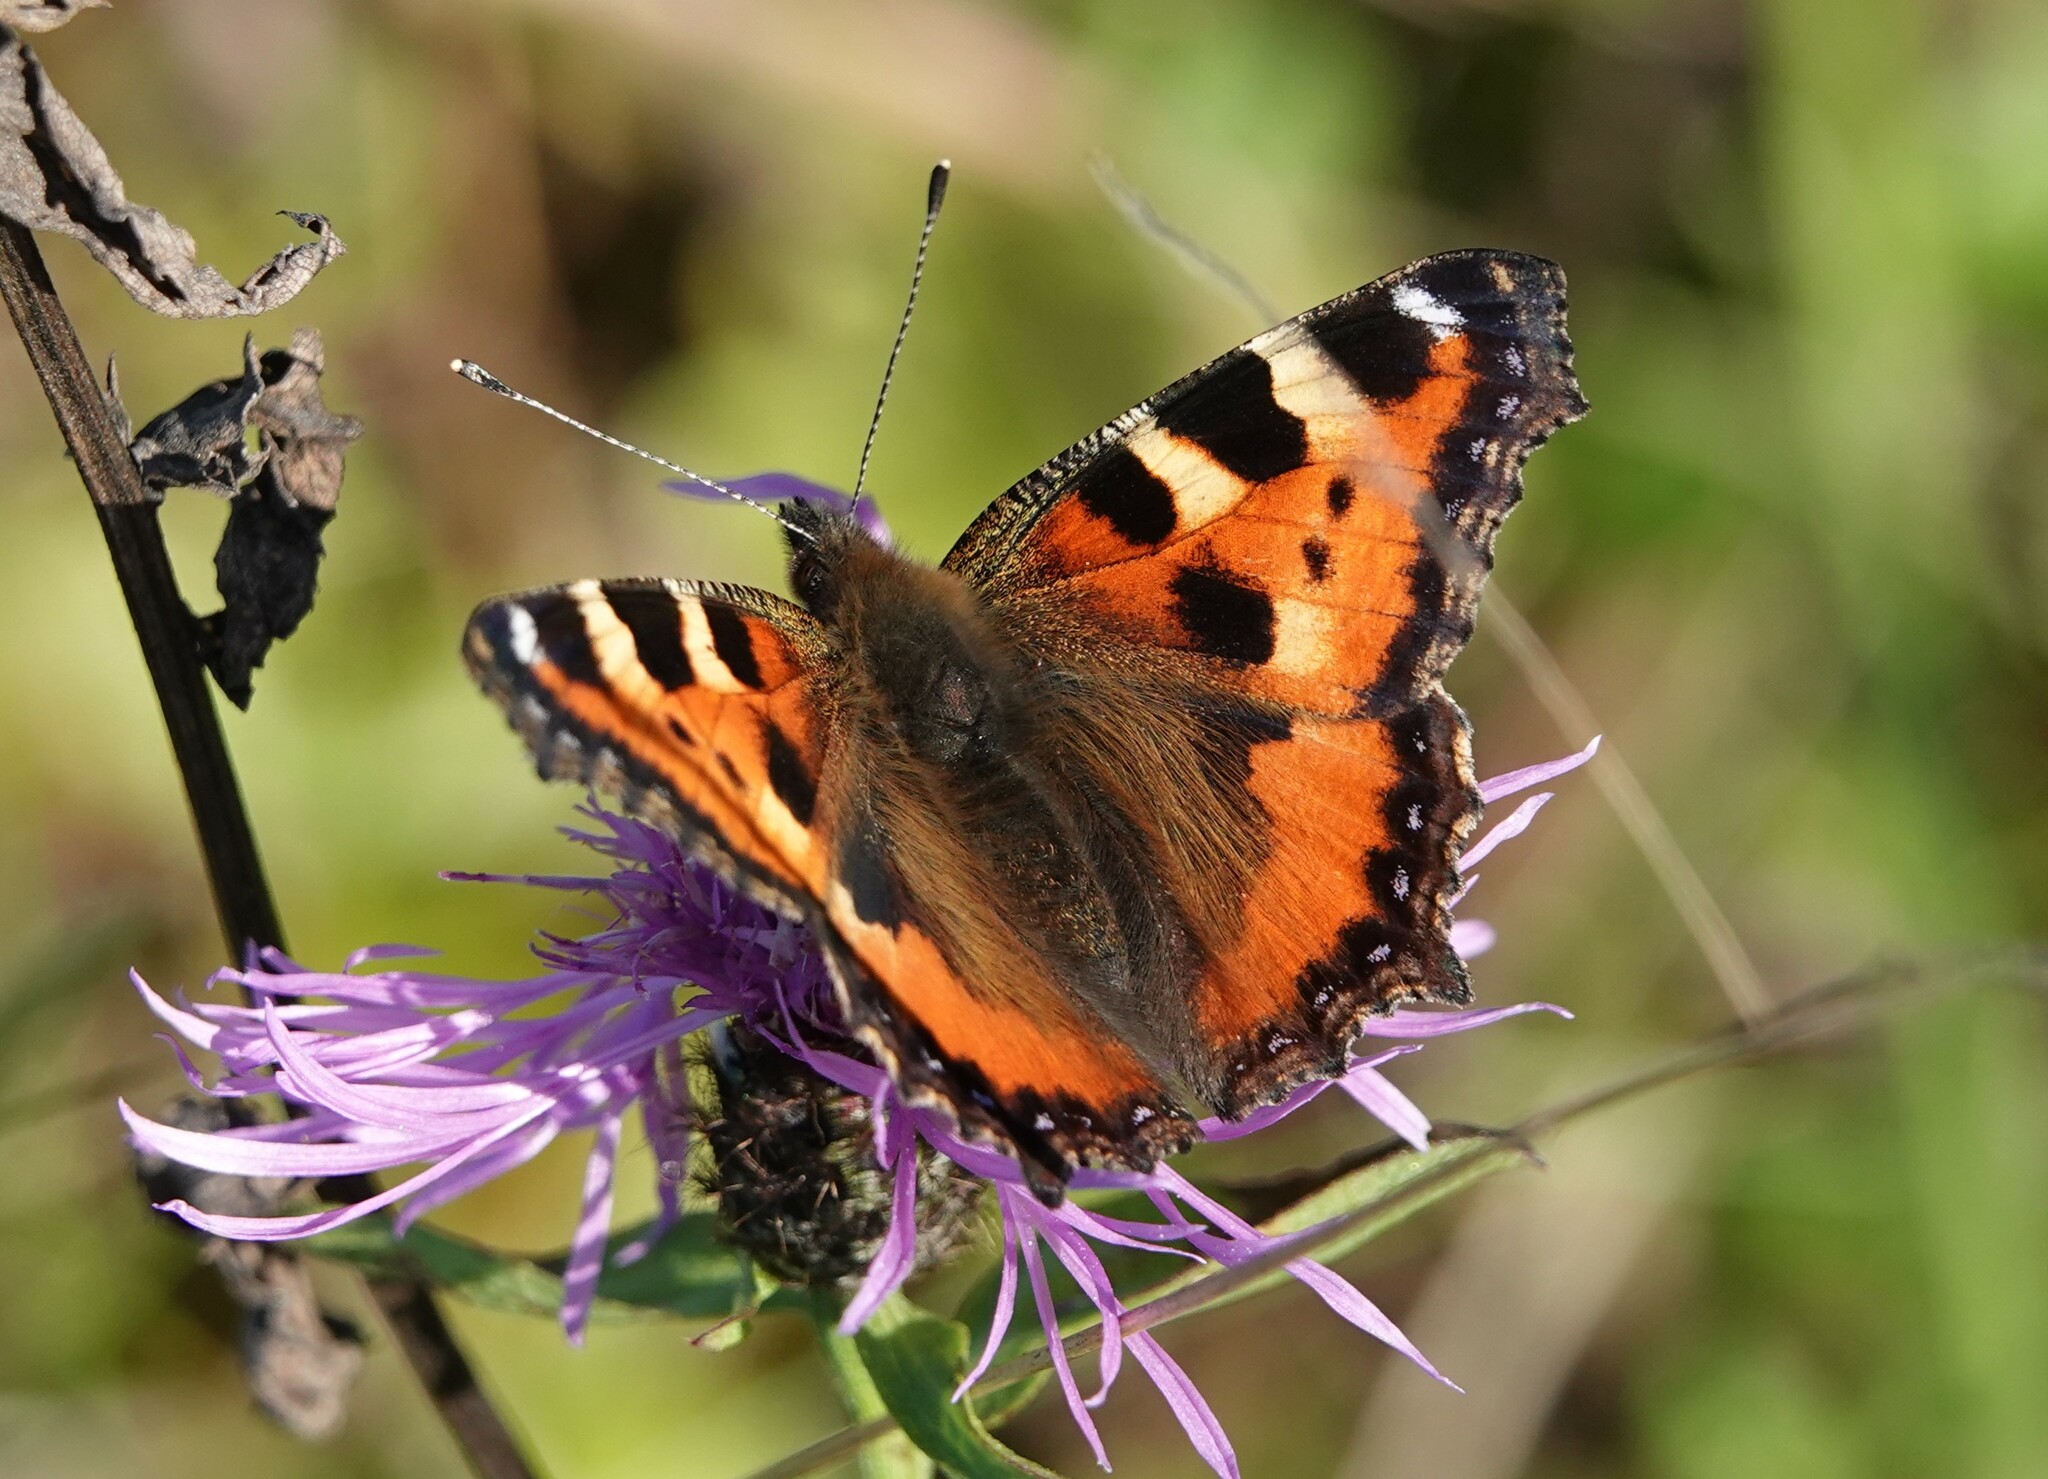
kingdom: Animalia
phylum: Arthropoda
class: Insecta
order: Lepidoptera
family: Nymphalidae
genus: Aglais
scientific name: Aglais urticae
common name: Small tortoiseshell
